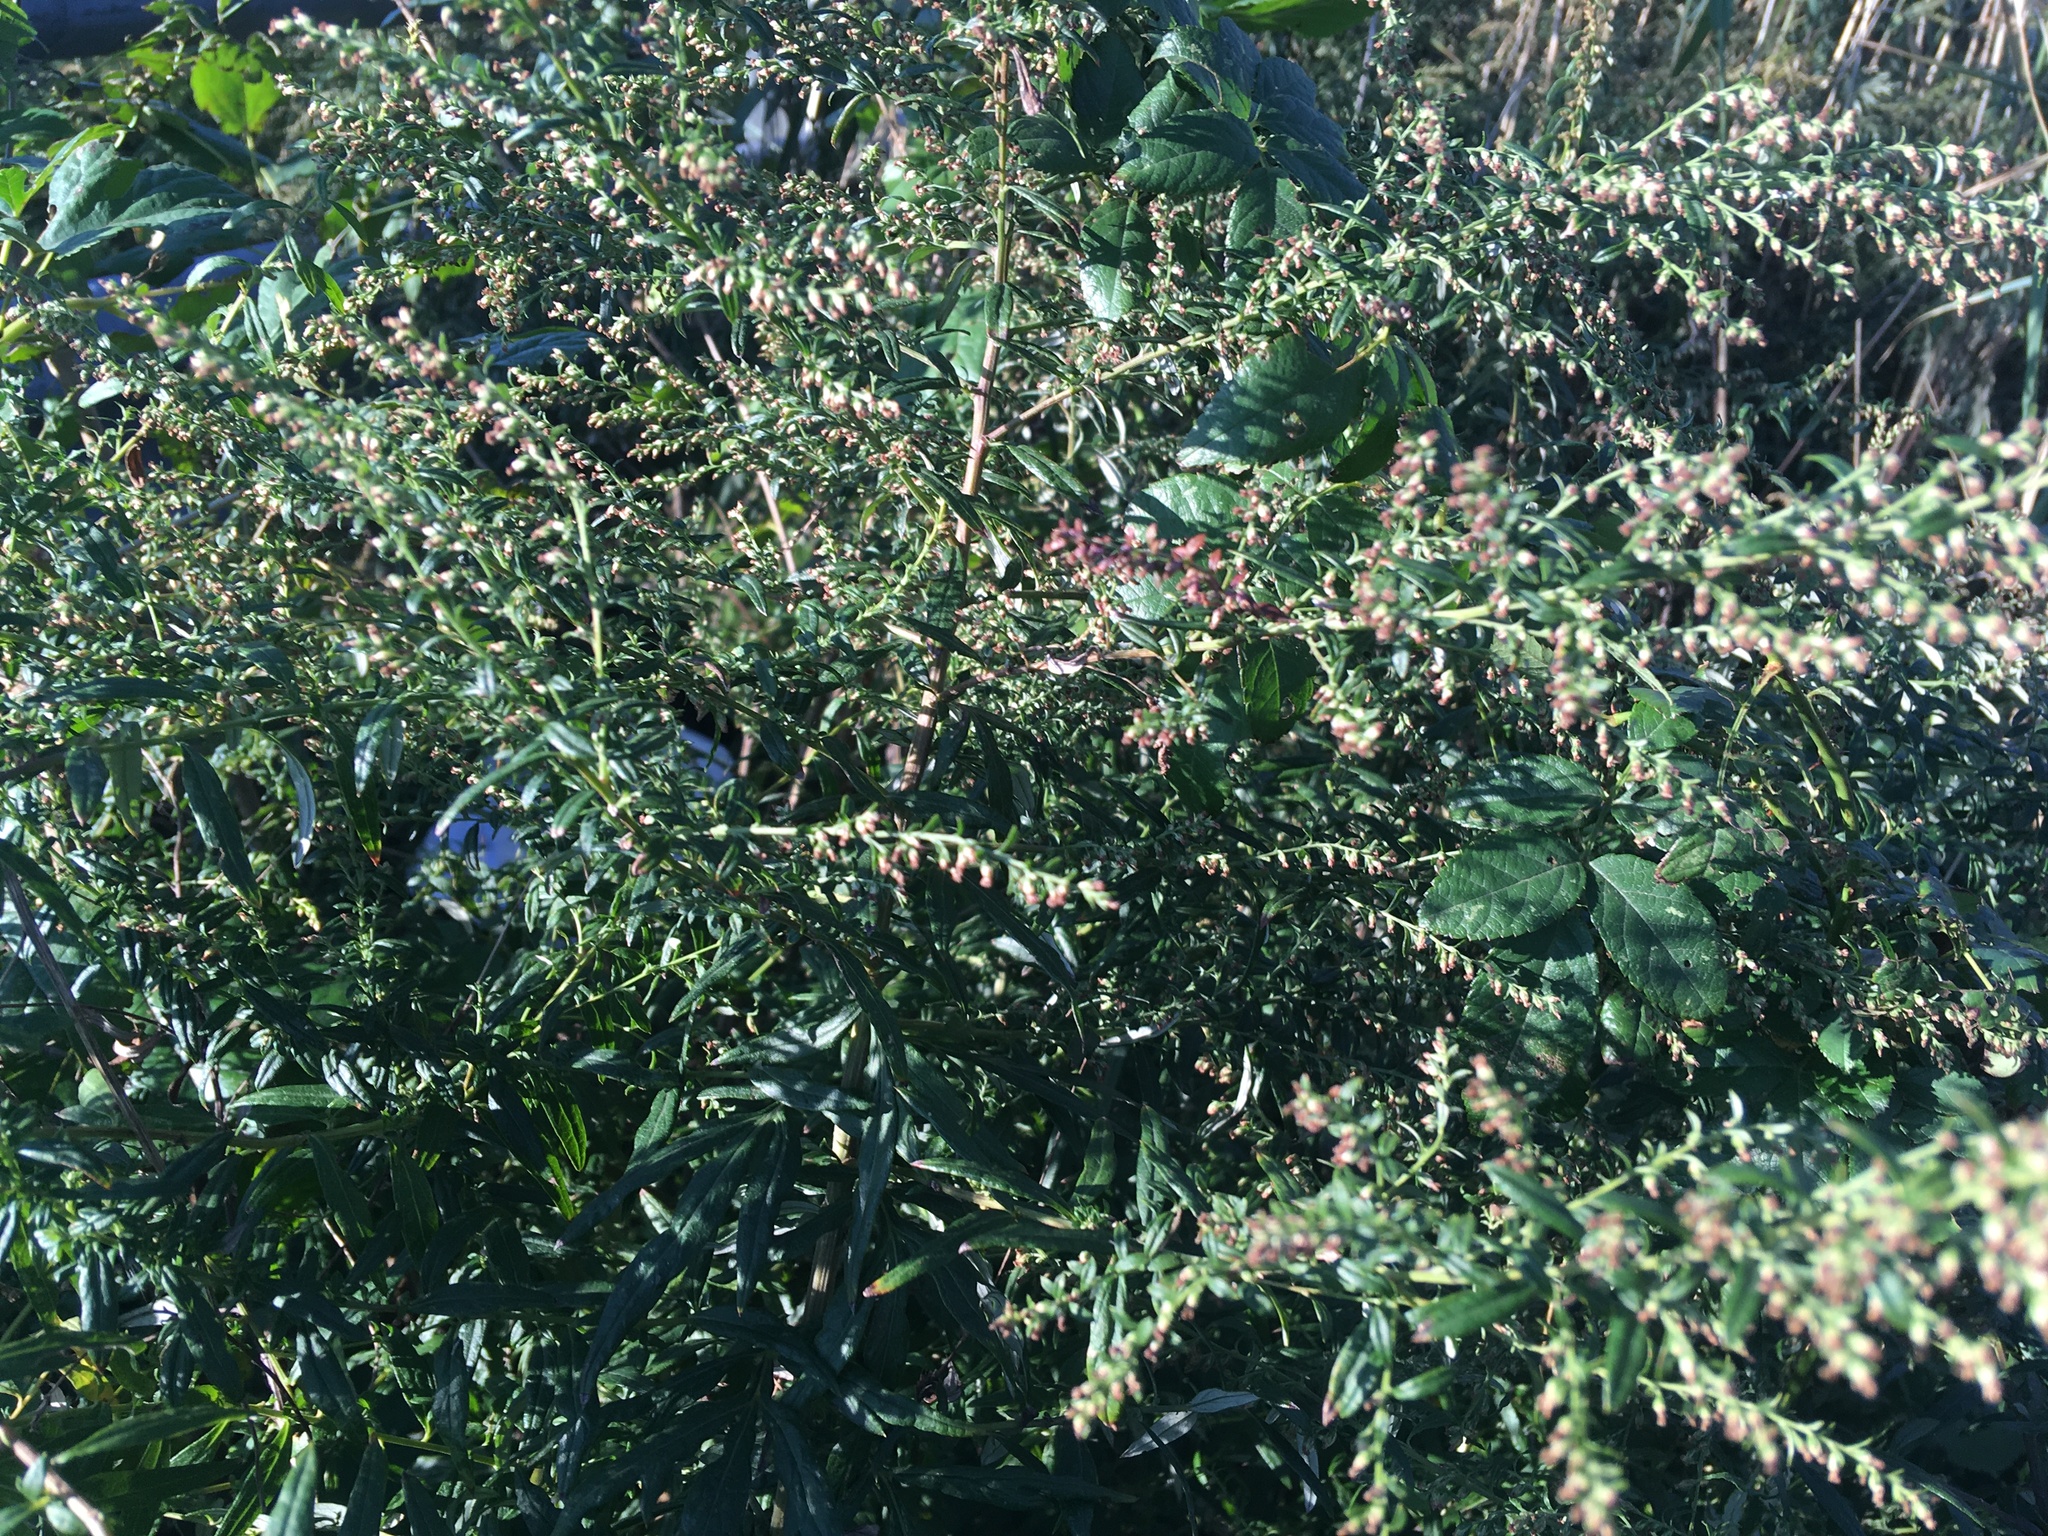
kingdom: Plantae
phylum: Tracheophyta
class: Magnoliopsida
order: Asterales
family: Asteraceae
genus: Artemisia
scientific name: Artemisia vulgaris
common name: Mugwort
